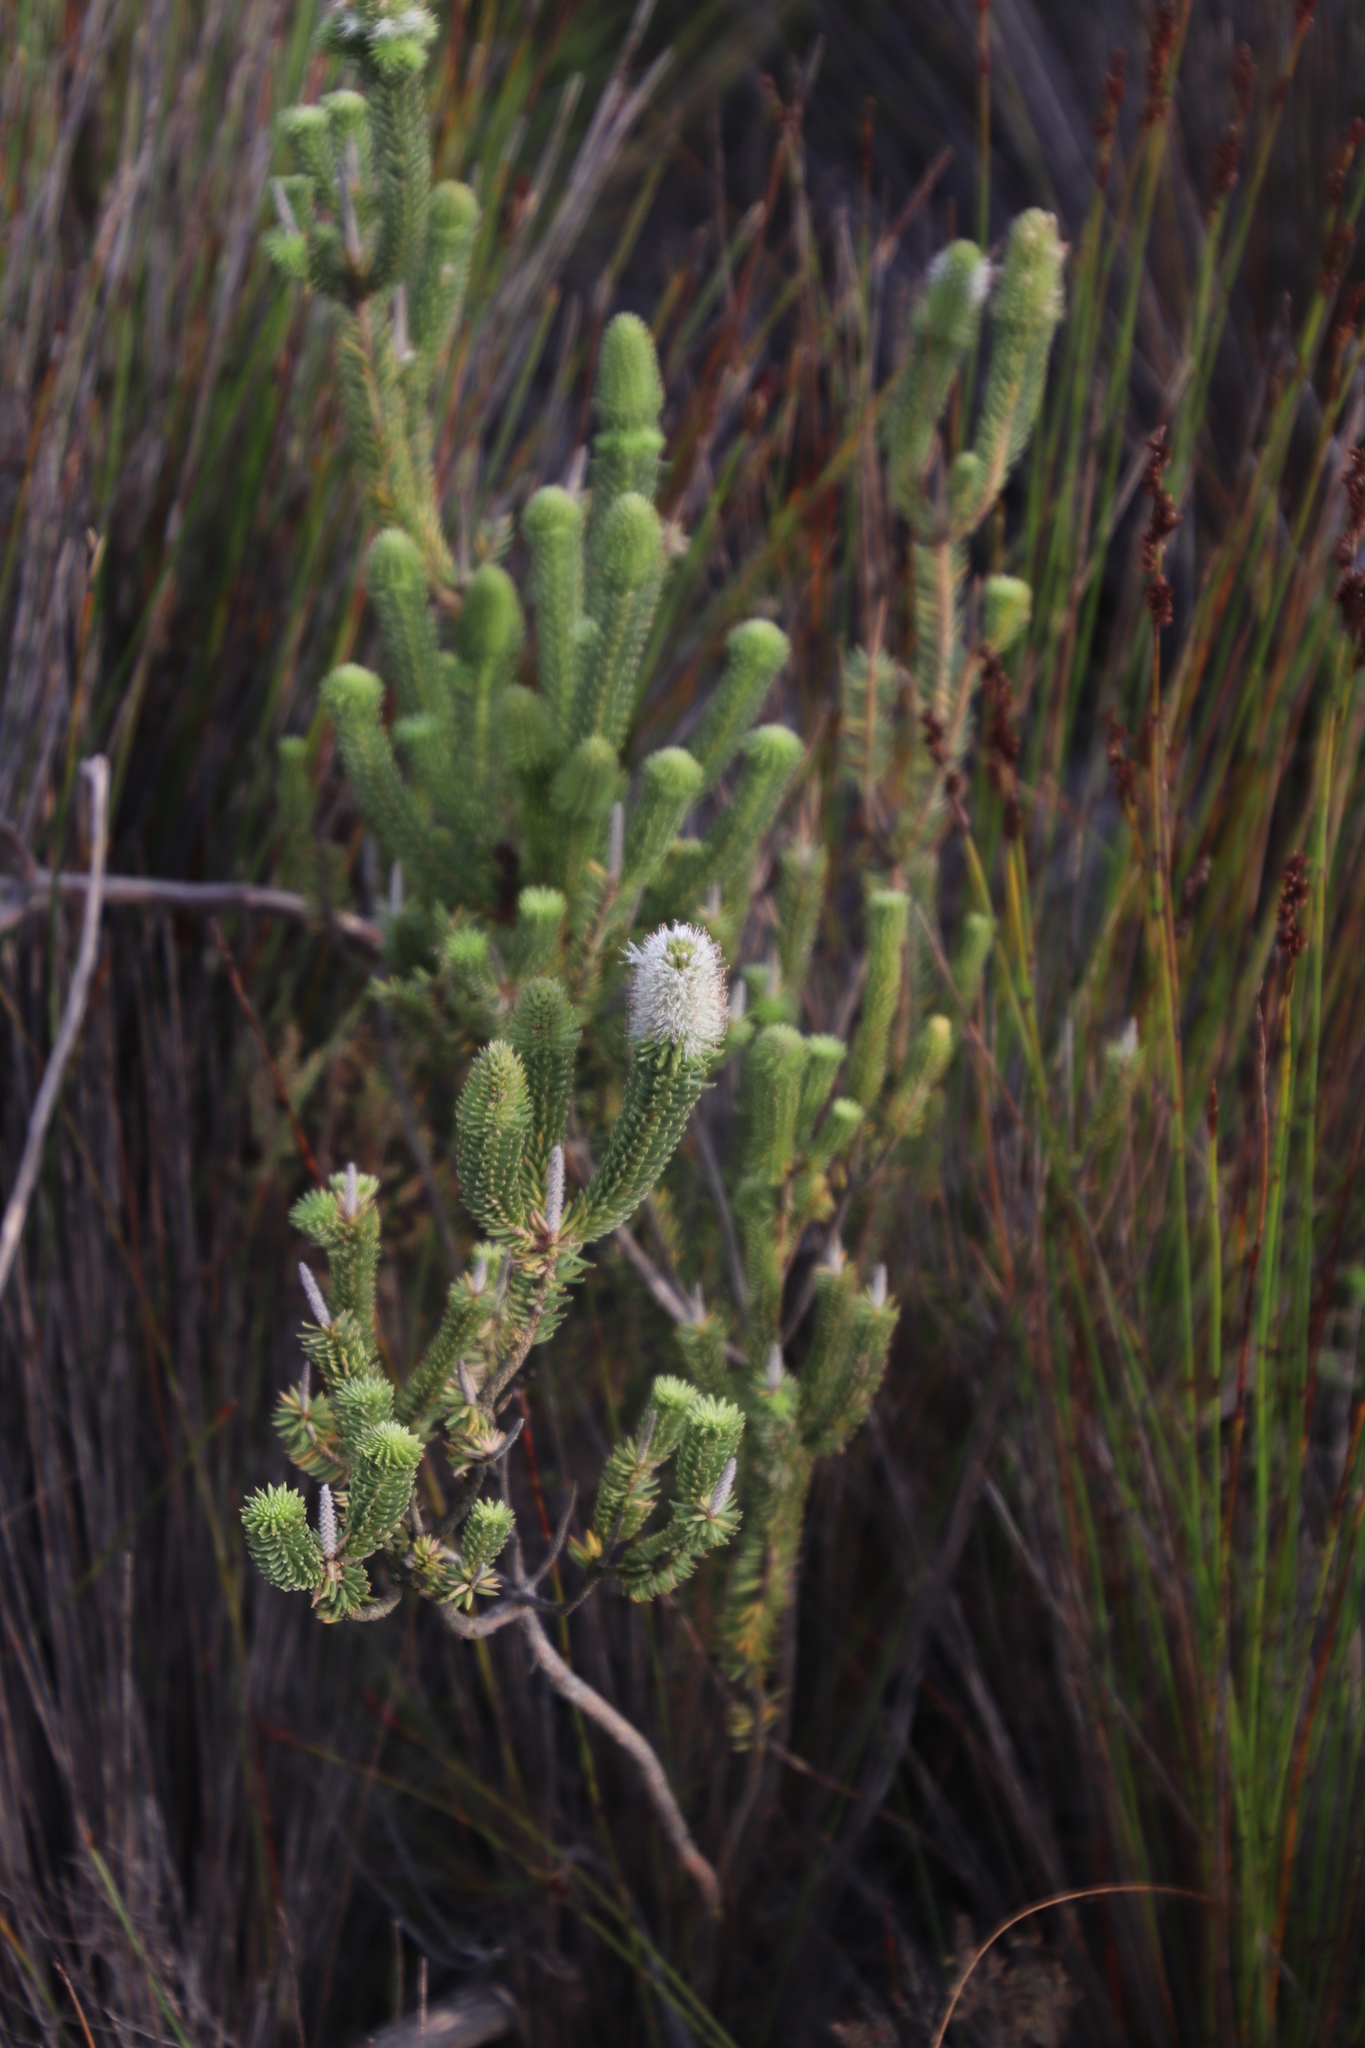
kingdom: Plantae
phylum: Tracheophyta
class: Magnoliopsida
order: Lamiales
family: Stilbaceae
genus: Stilbe
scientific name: Stilbe vestita
